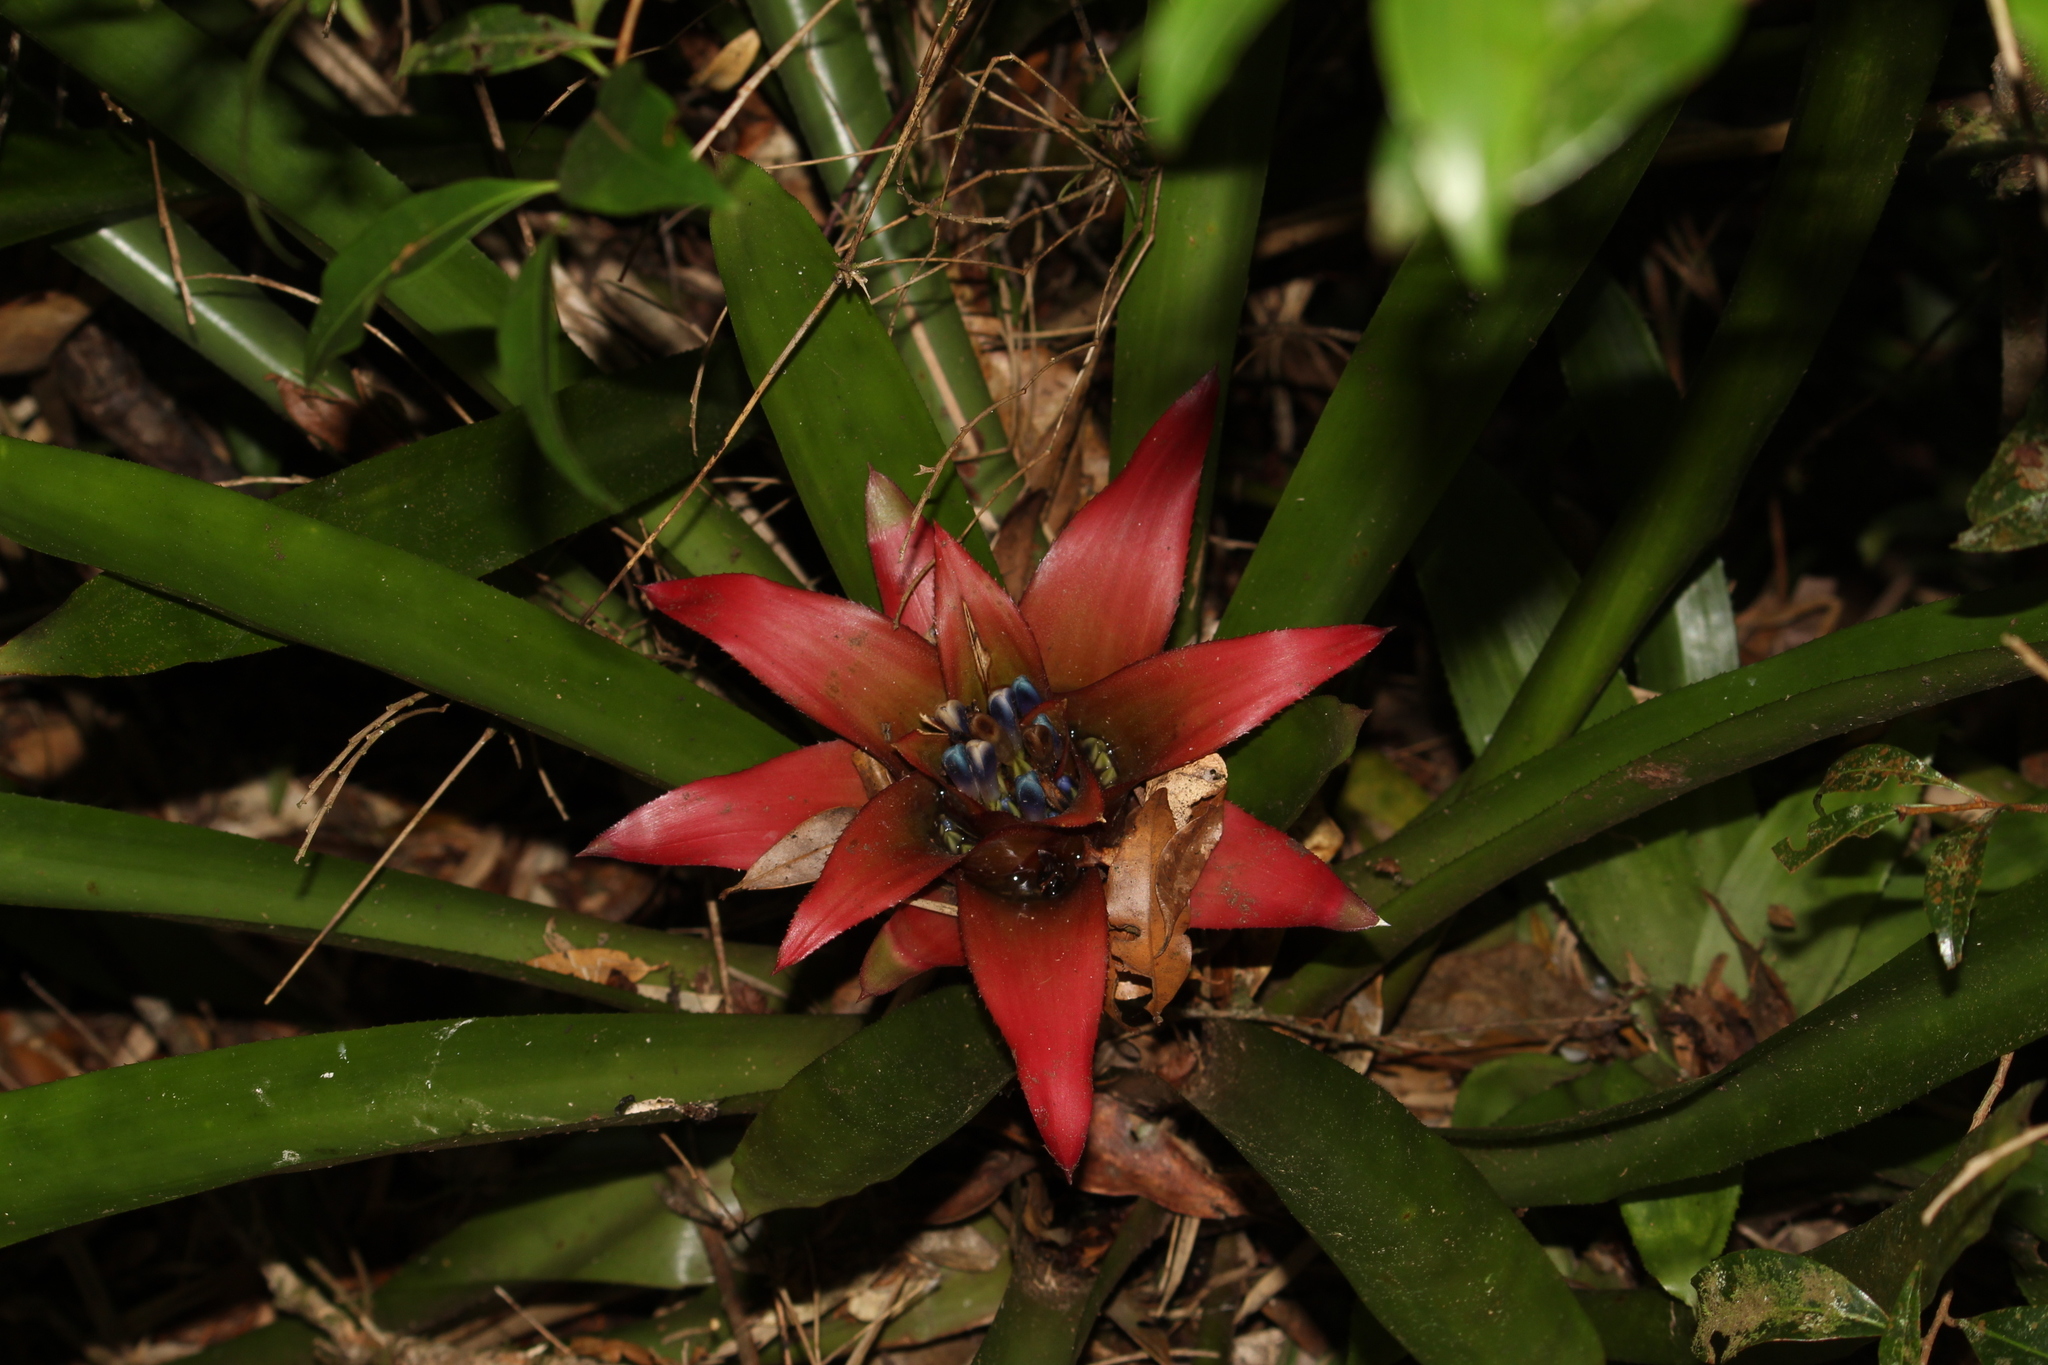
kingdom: Plantae
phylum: Tracheophyta
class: Liliopsida
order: Poales
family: Bromeliaceae
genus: Nidularium
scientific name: Nidularium procerum
